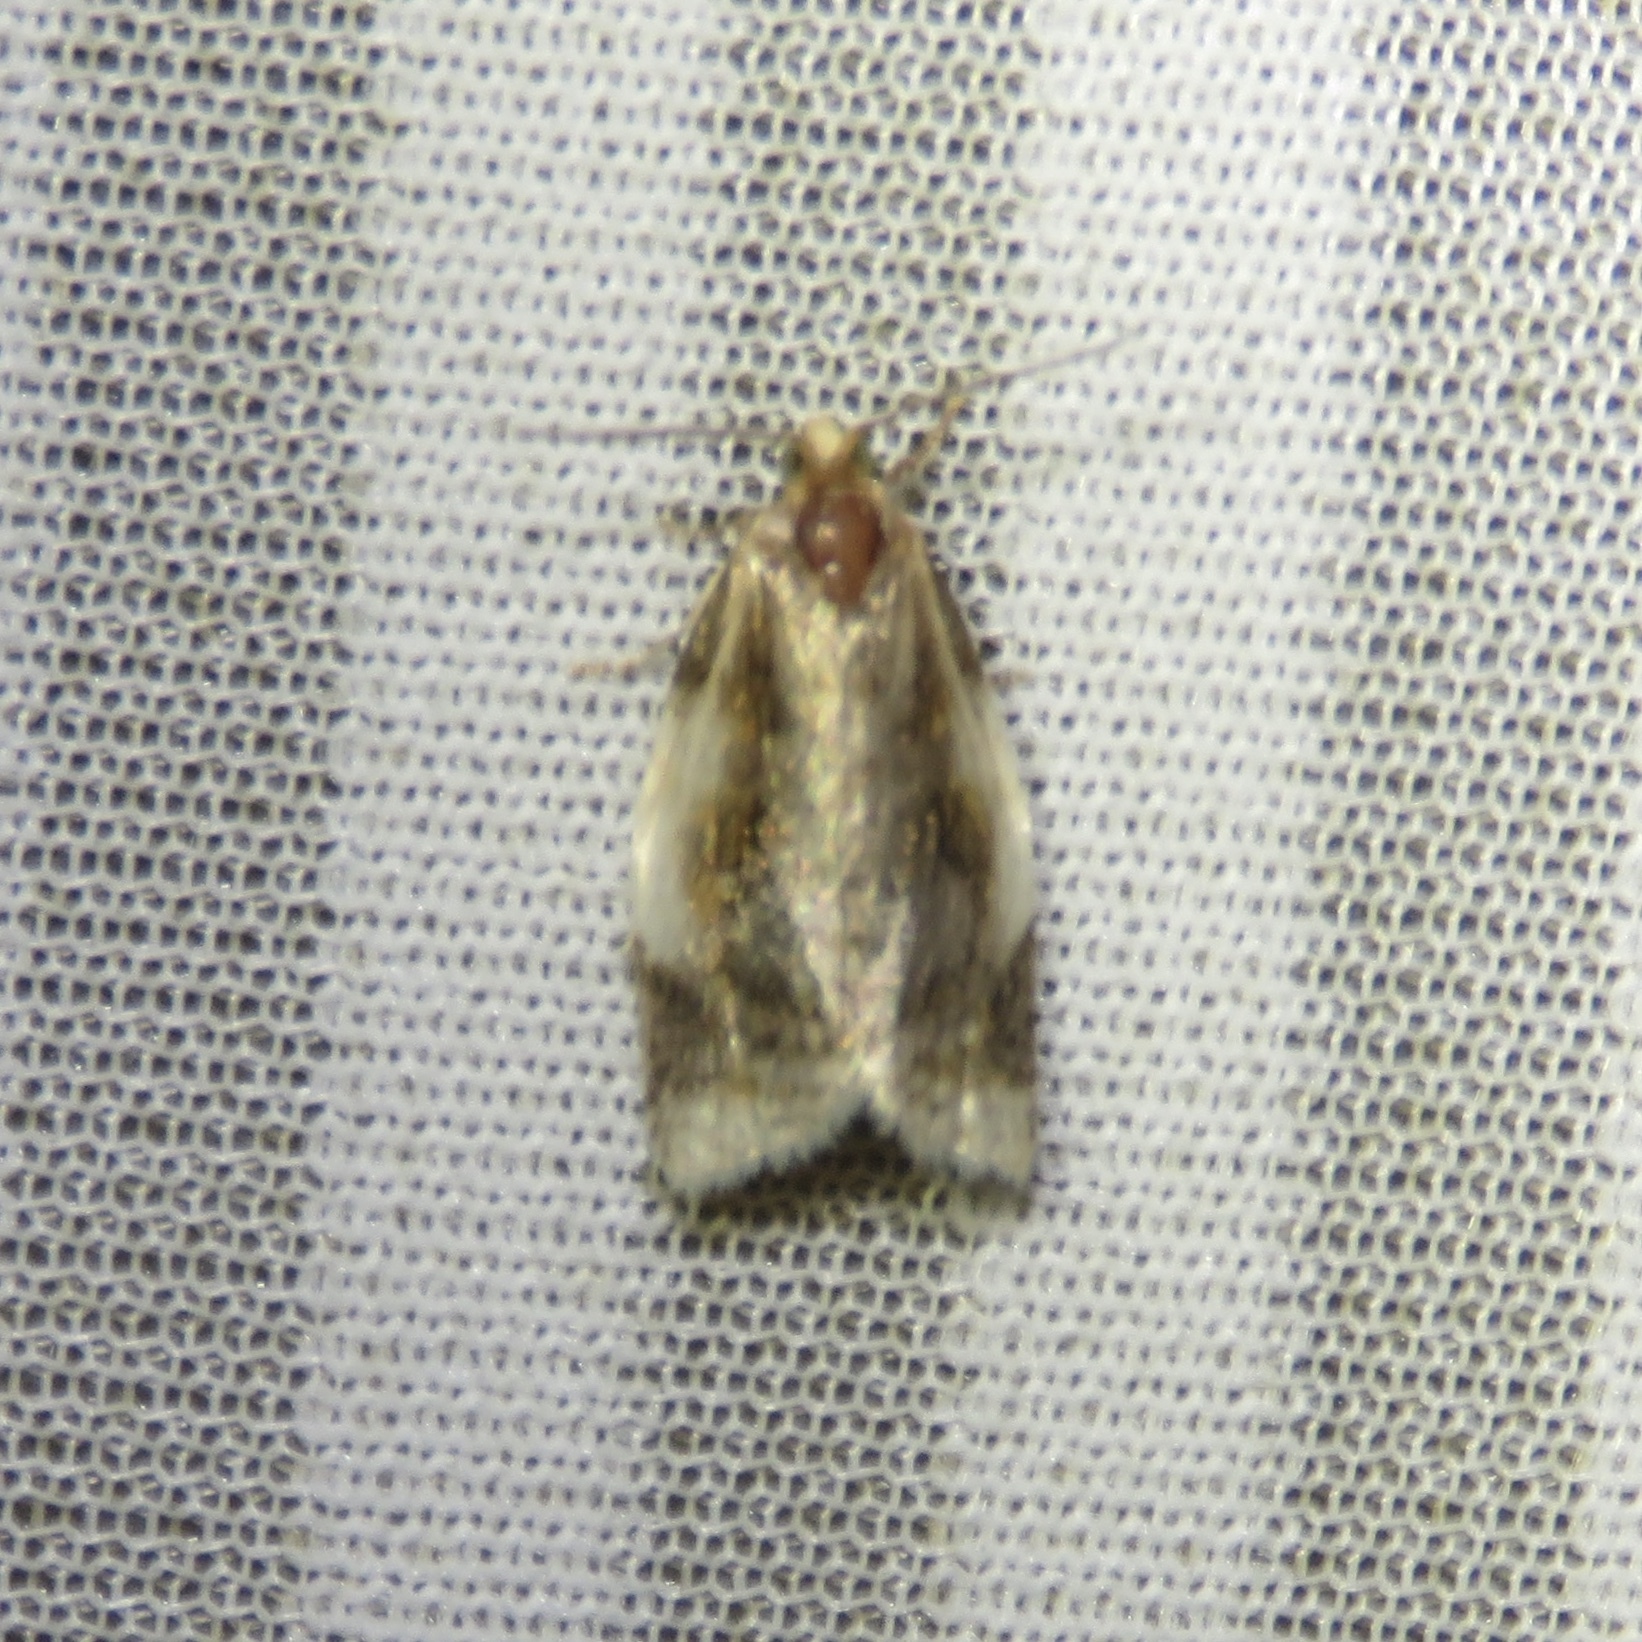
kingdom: Animalia
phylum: Arthropoda
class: Insecta
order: Lepidoptera
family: Tortricidae
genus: Clepsis
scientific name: Clepsis melaleucanus
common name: American apple tortrix
